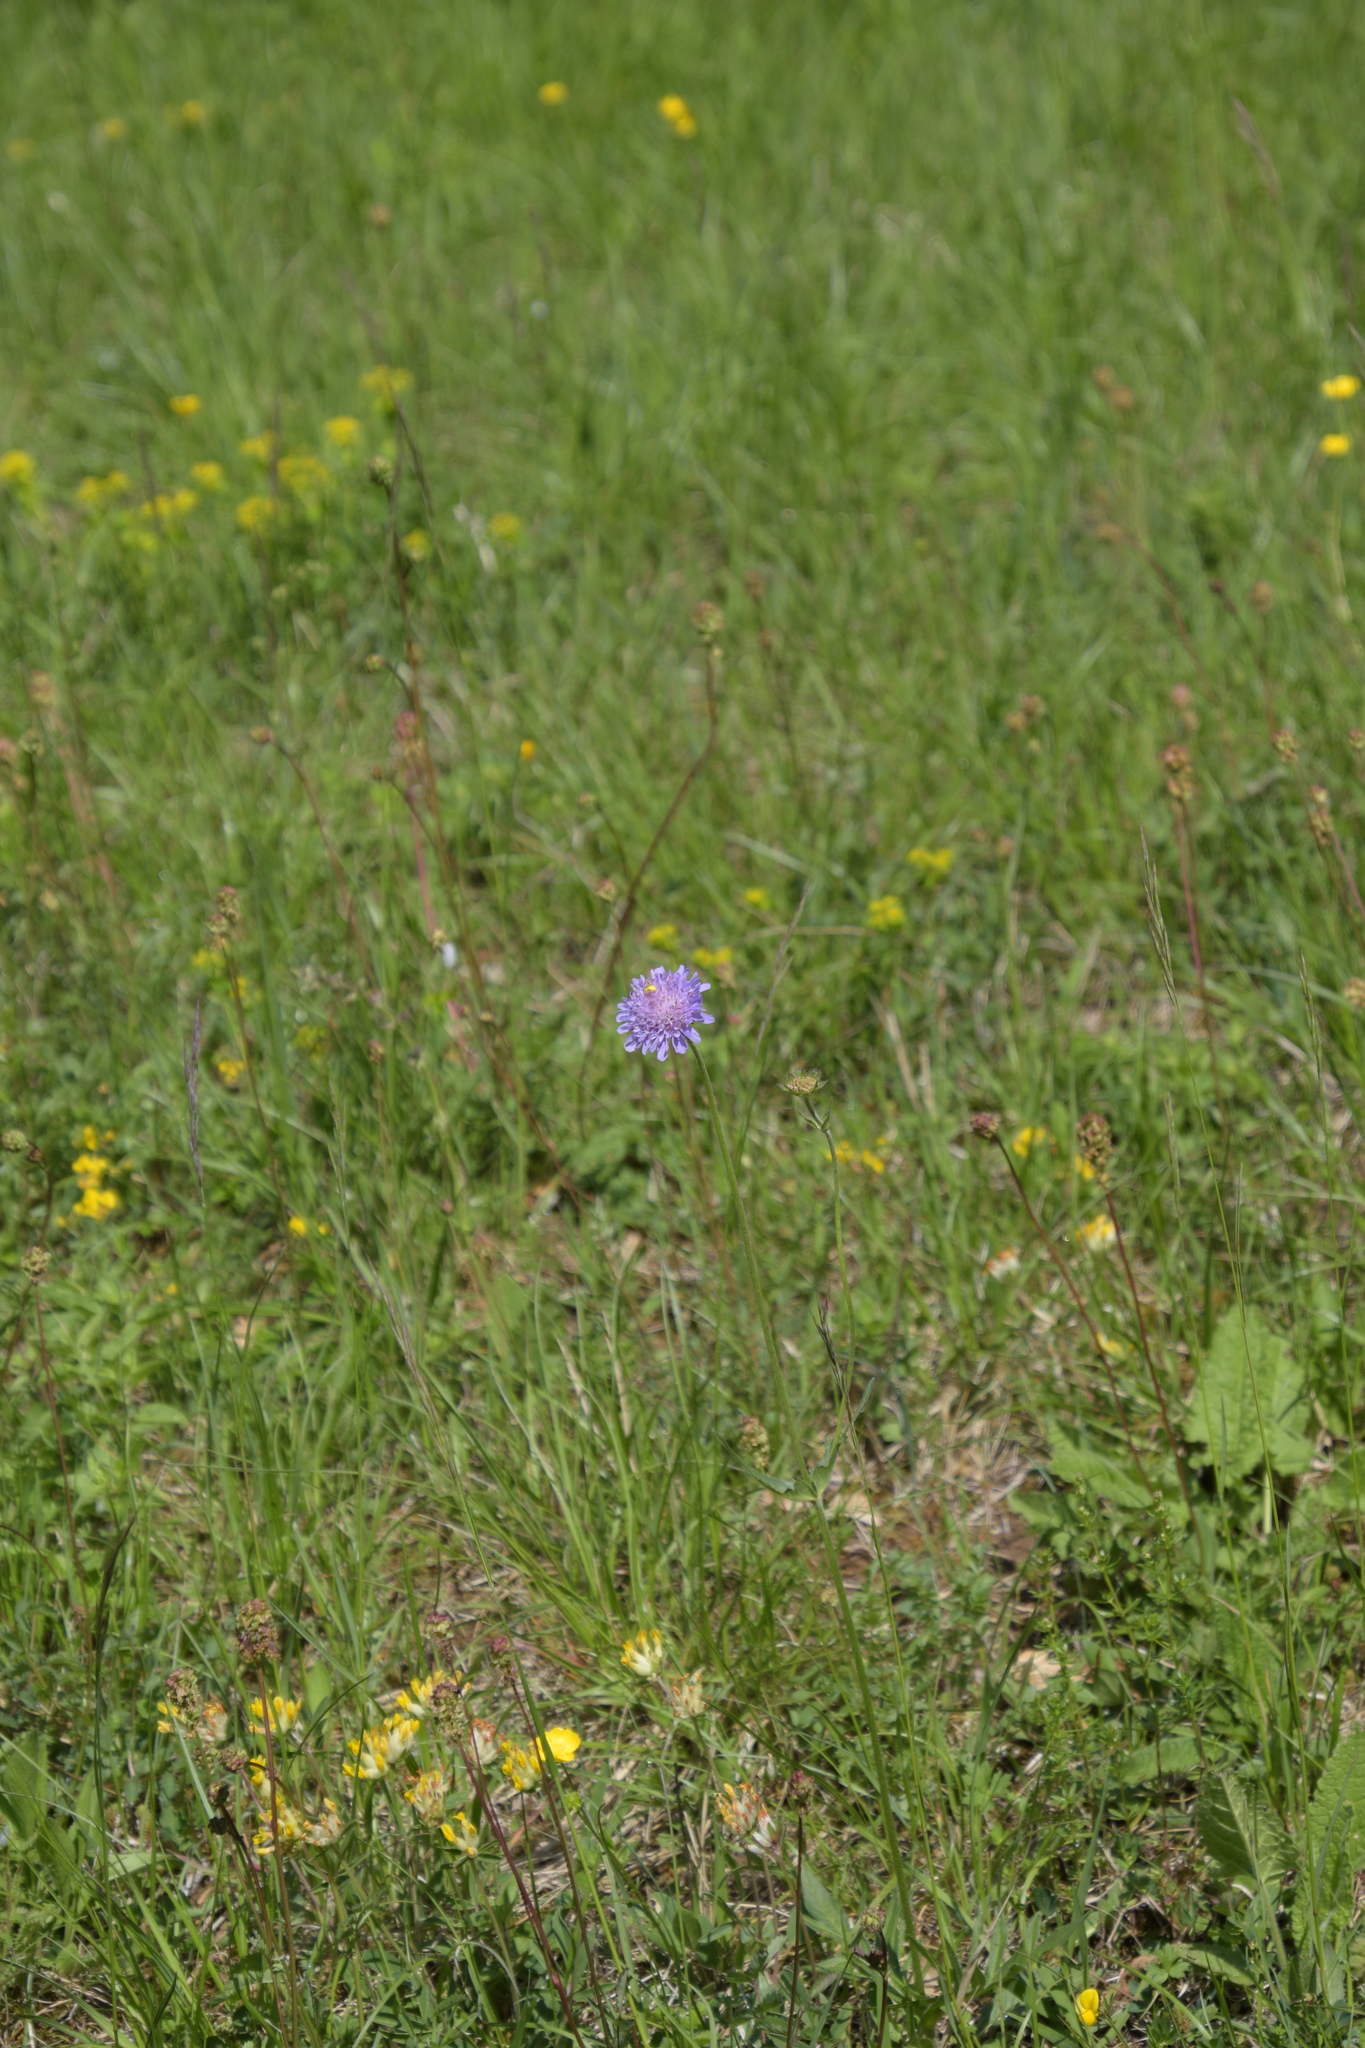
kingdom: Plantae
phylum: Tracheophyta
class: Magnoliopsida
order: Dipsacales
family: Caprifoliaceae
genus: Knautia
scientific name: Knautia arvensis
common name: Field scabiosa
